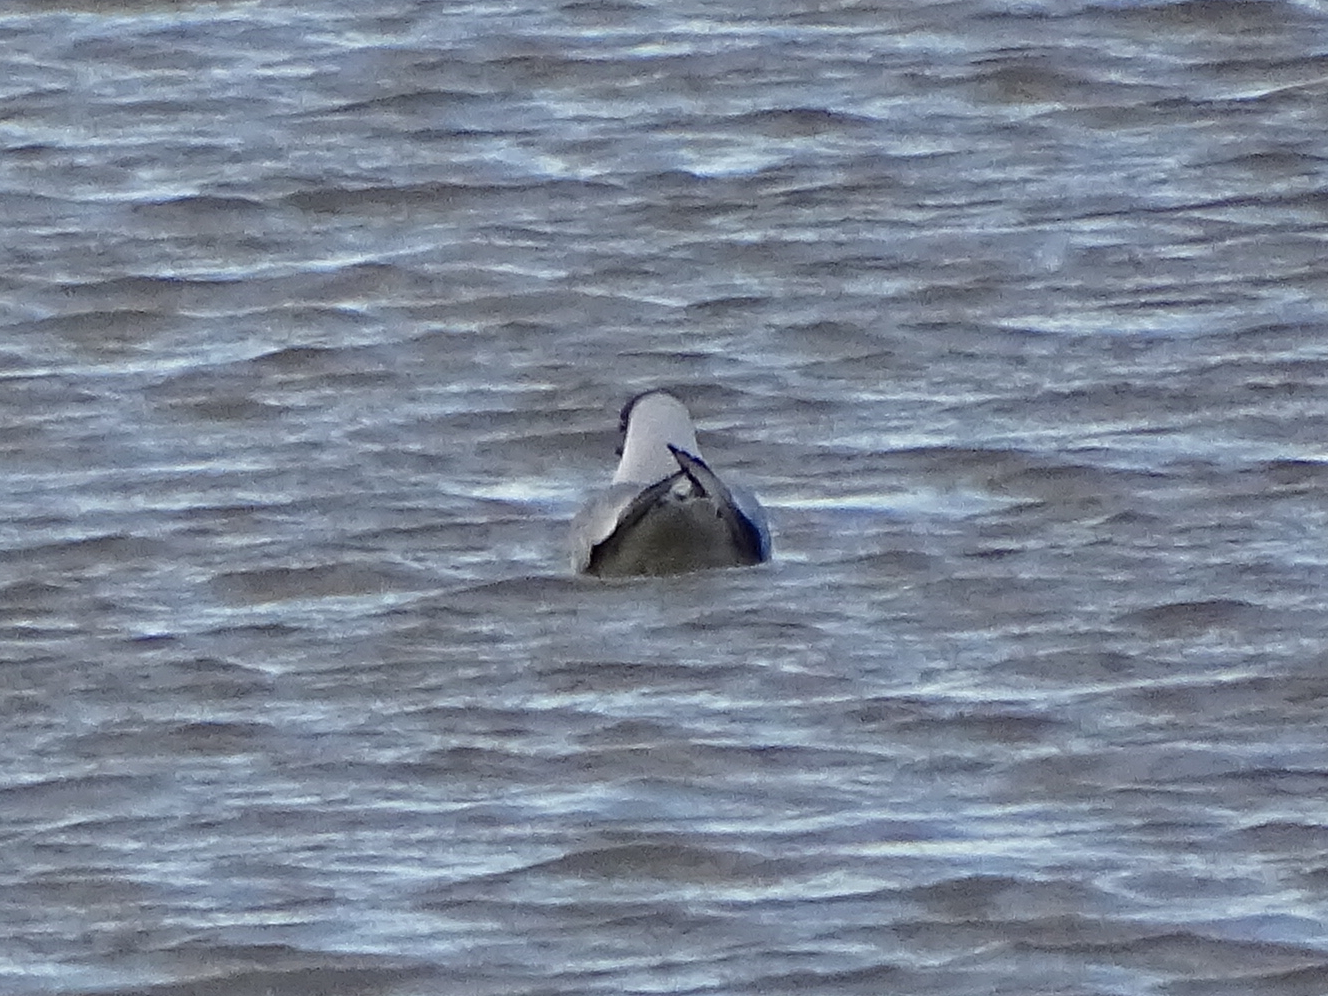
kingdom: Animalia
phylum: Chordata
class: Aves
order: Charadriiformes
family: Laridae
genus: Chroicocephalus
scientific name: Chroicocephalus ridibundus
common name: Black-headed gull
